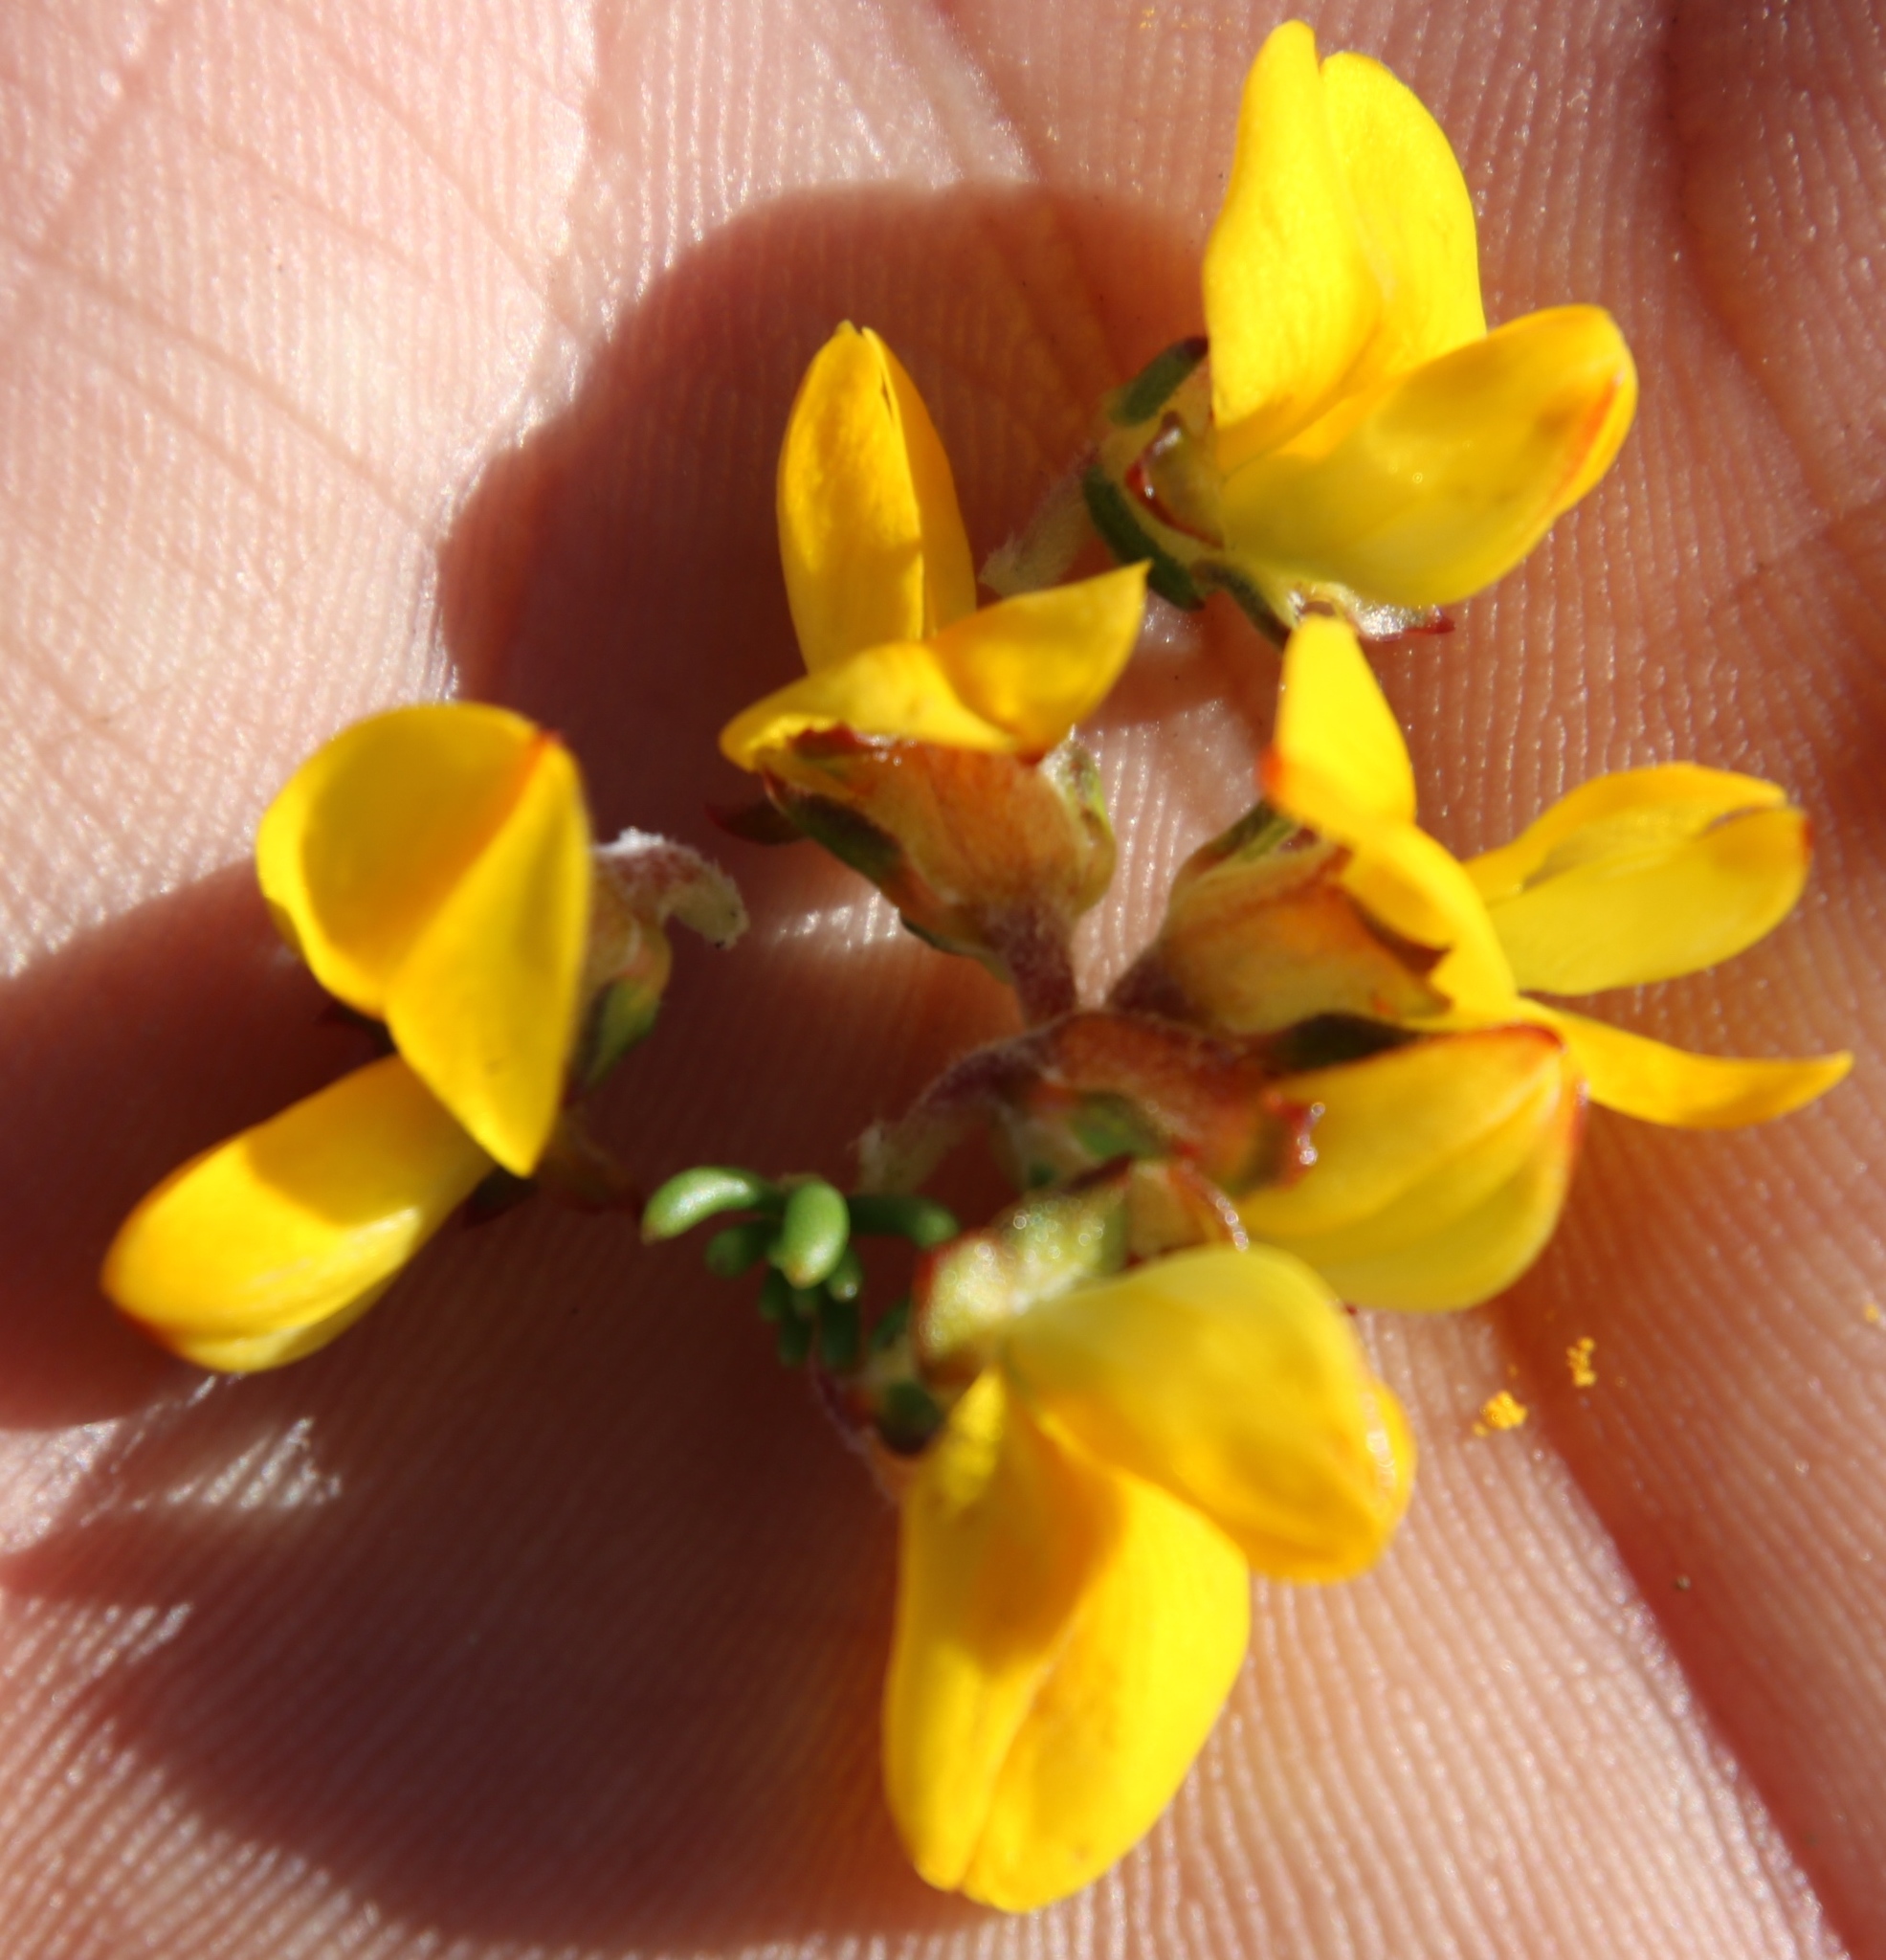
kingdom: Plantae
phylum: Tracheophyta
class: Magnoliopsida
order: Fabales
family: Fabaceae
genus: Aspalathus
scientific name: Aspalathus carnosa
